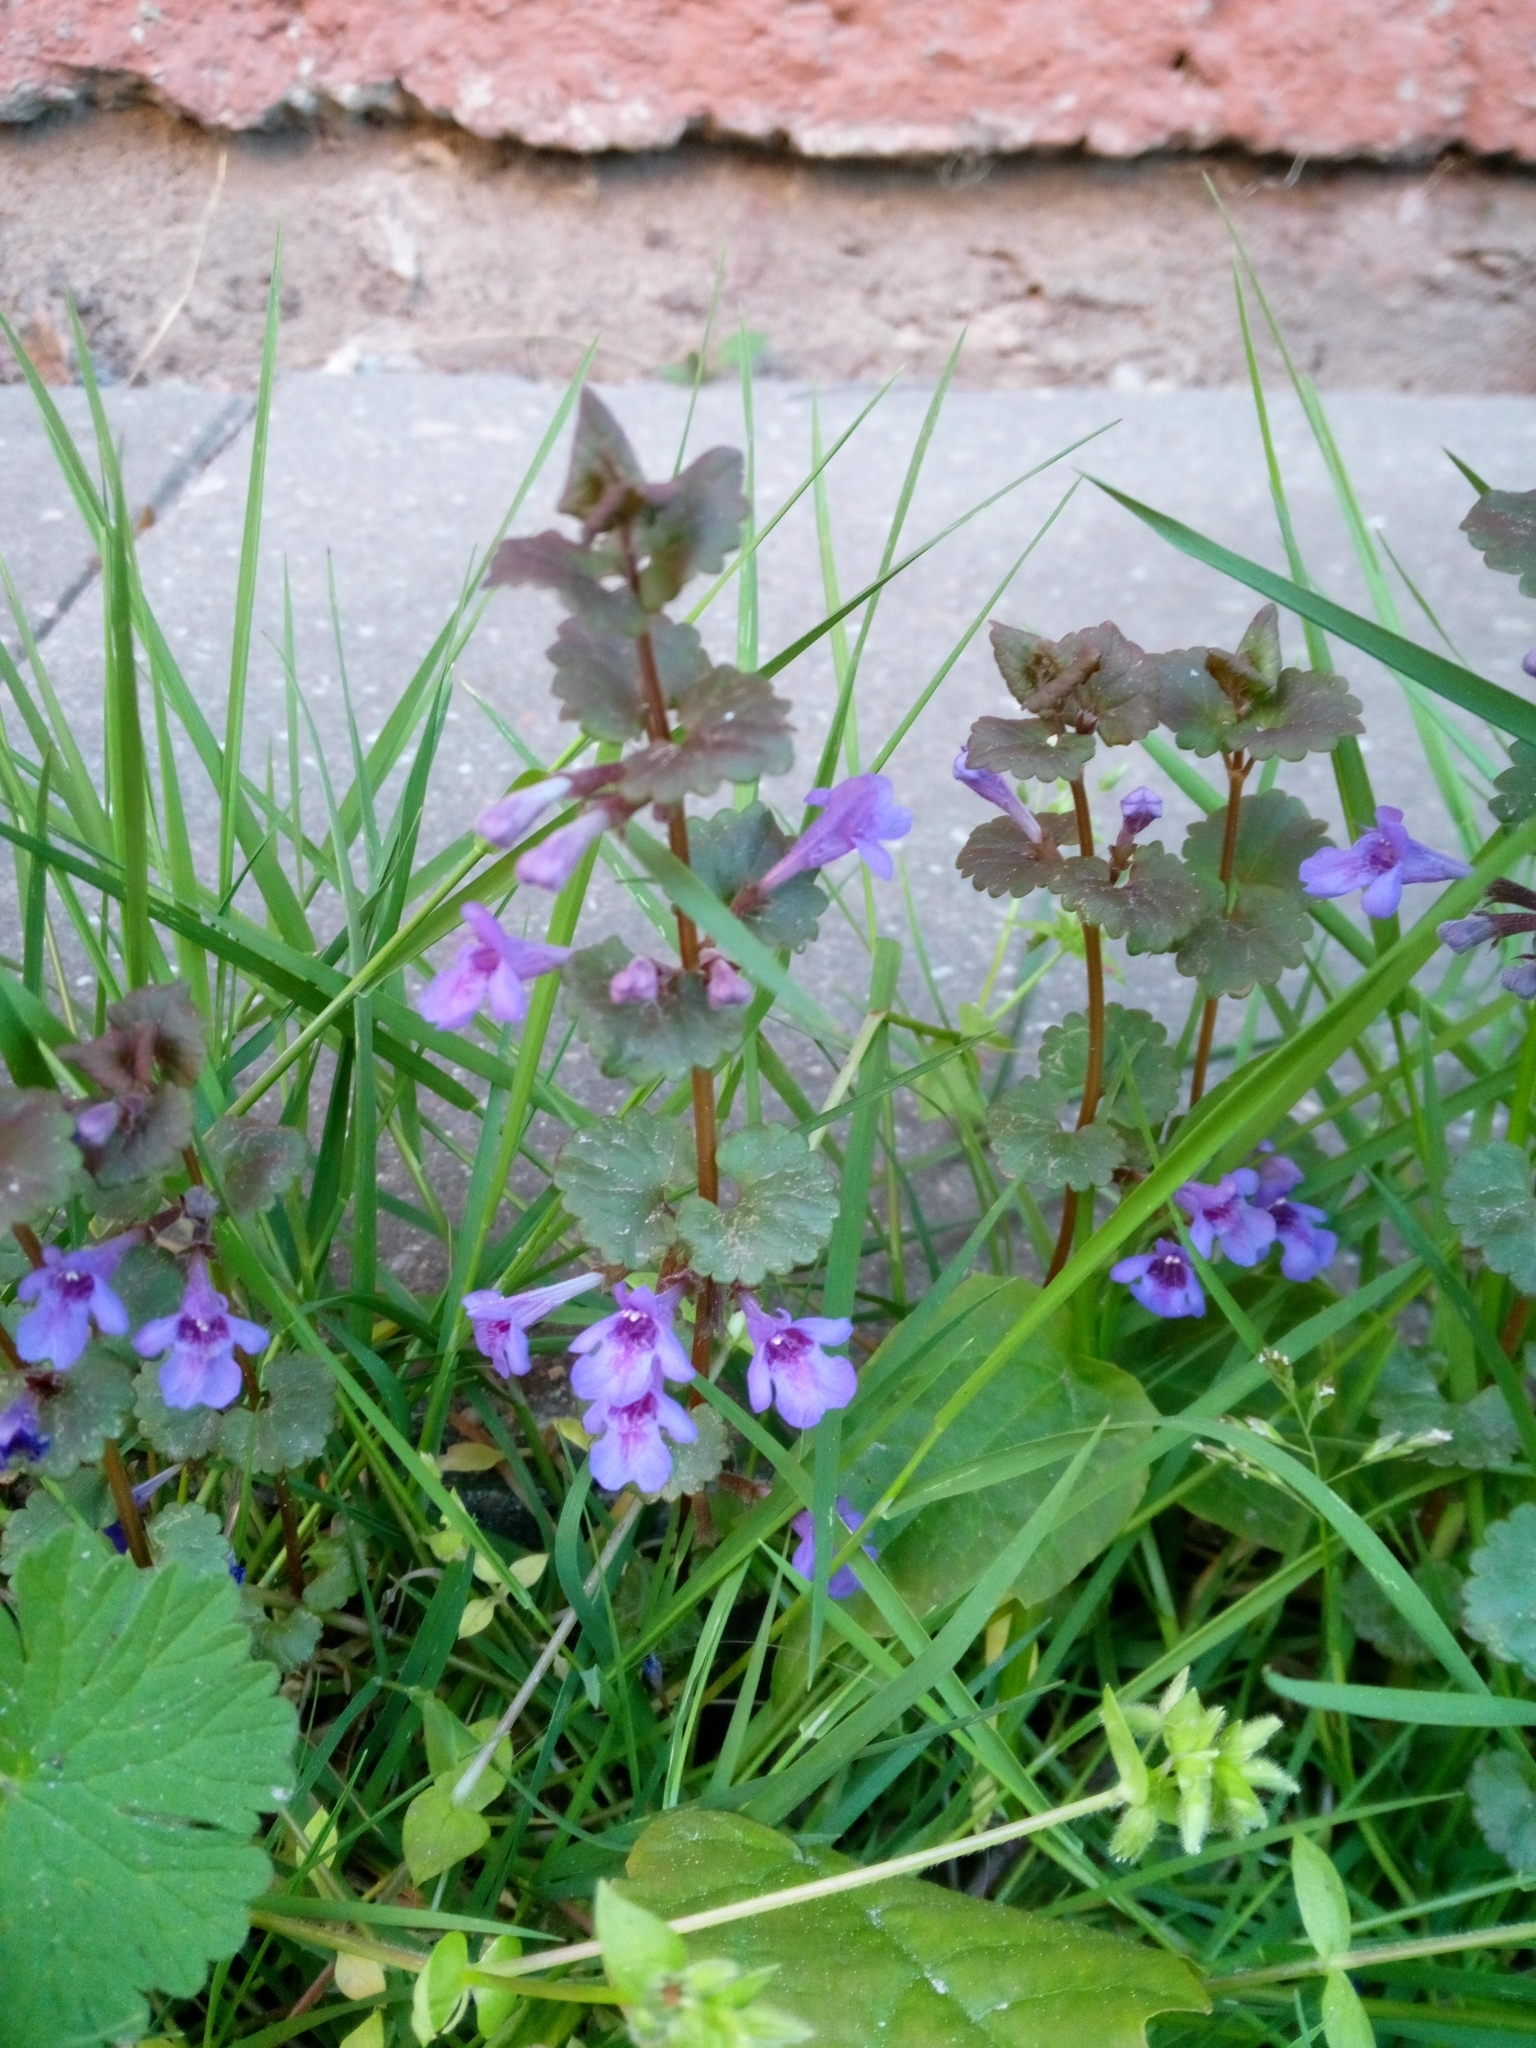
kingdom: Plantae
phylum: Tracheophyta
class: Magnoliopsida
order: Lamiales
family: Lamiaceae
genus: Glechoma
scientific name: Glechoma hederacea
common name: Ground ivy
